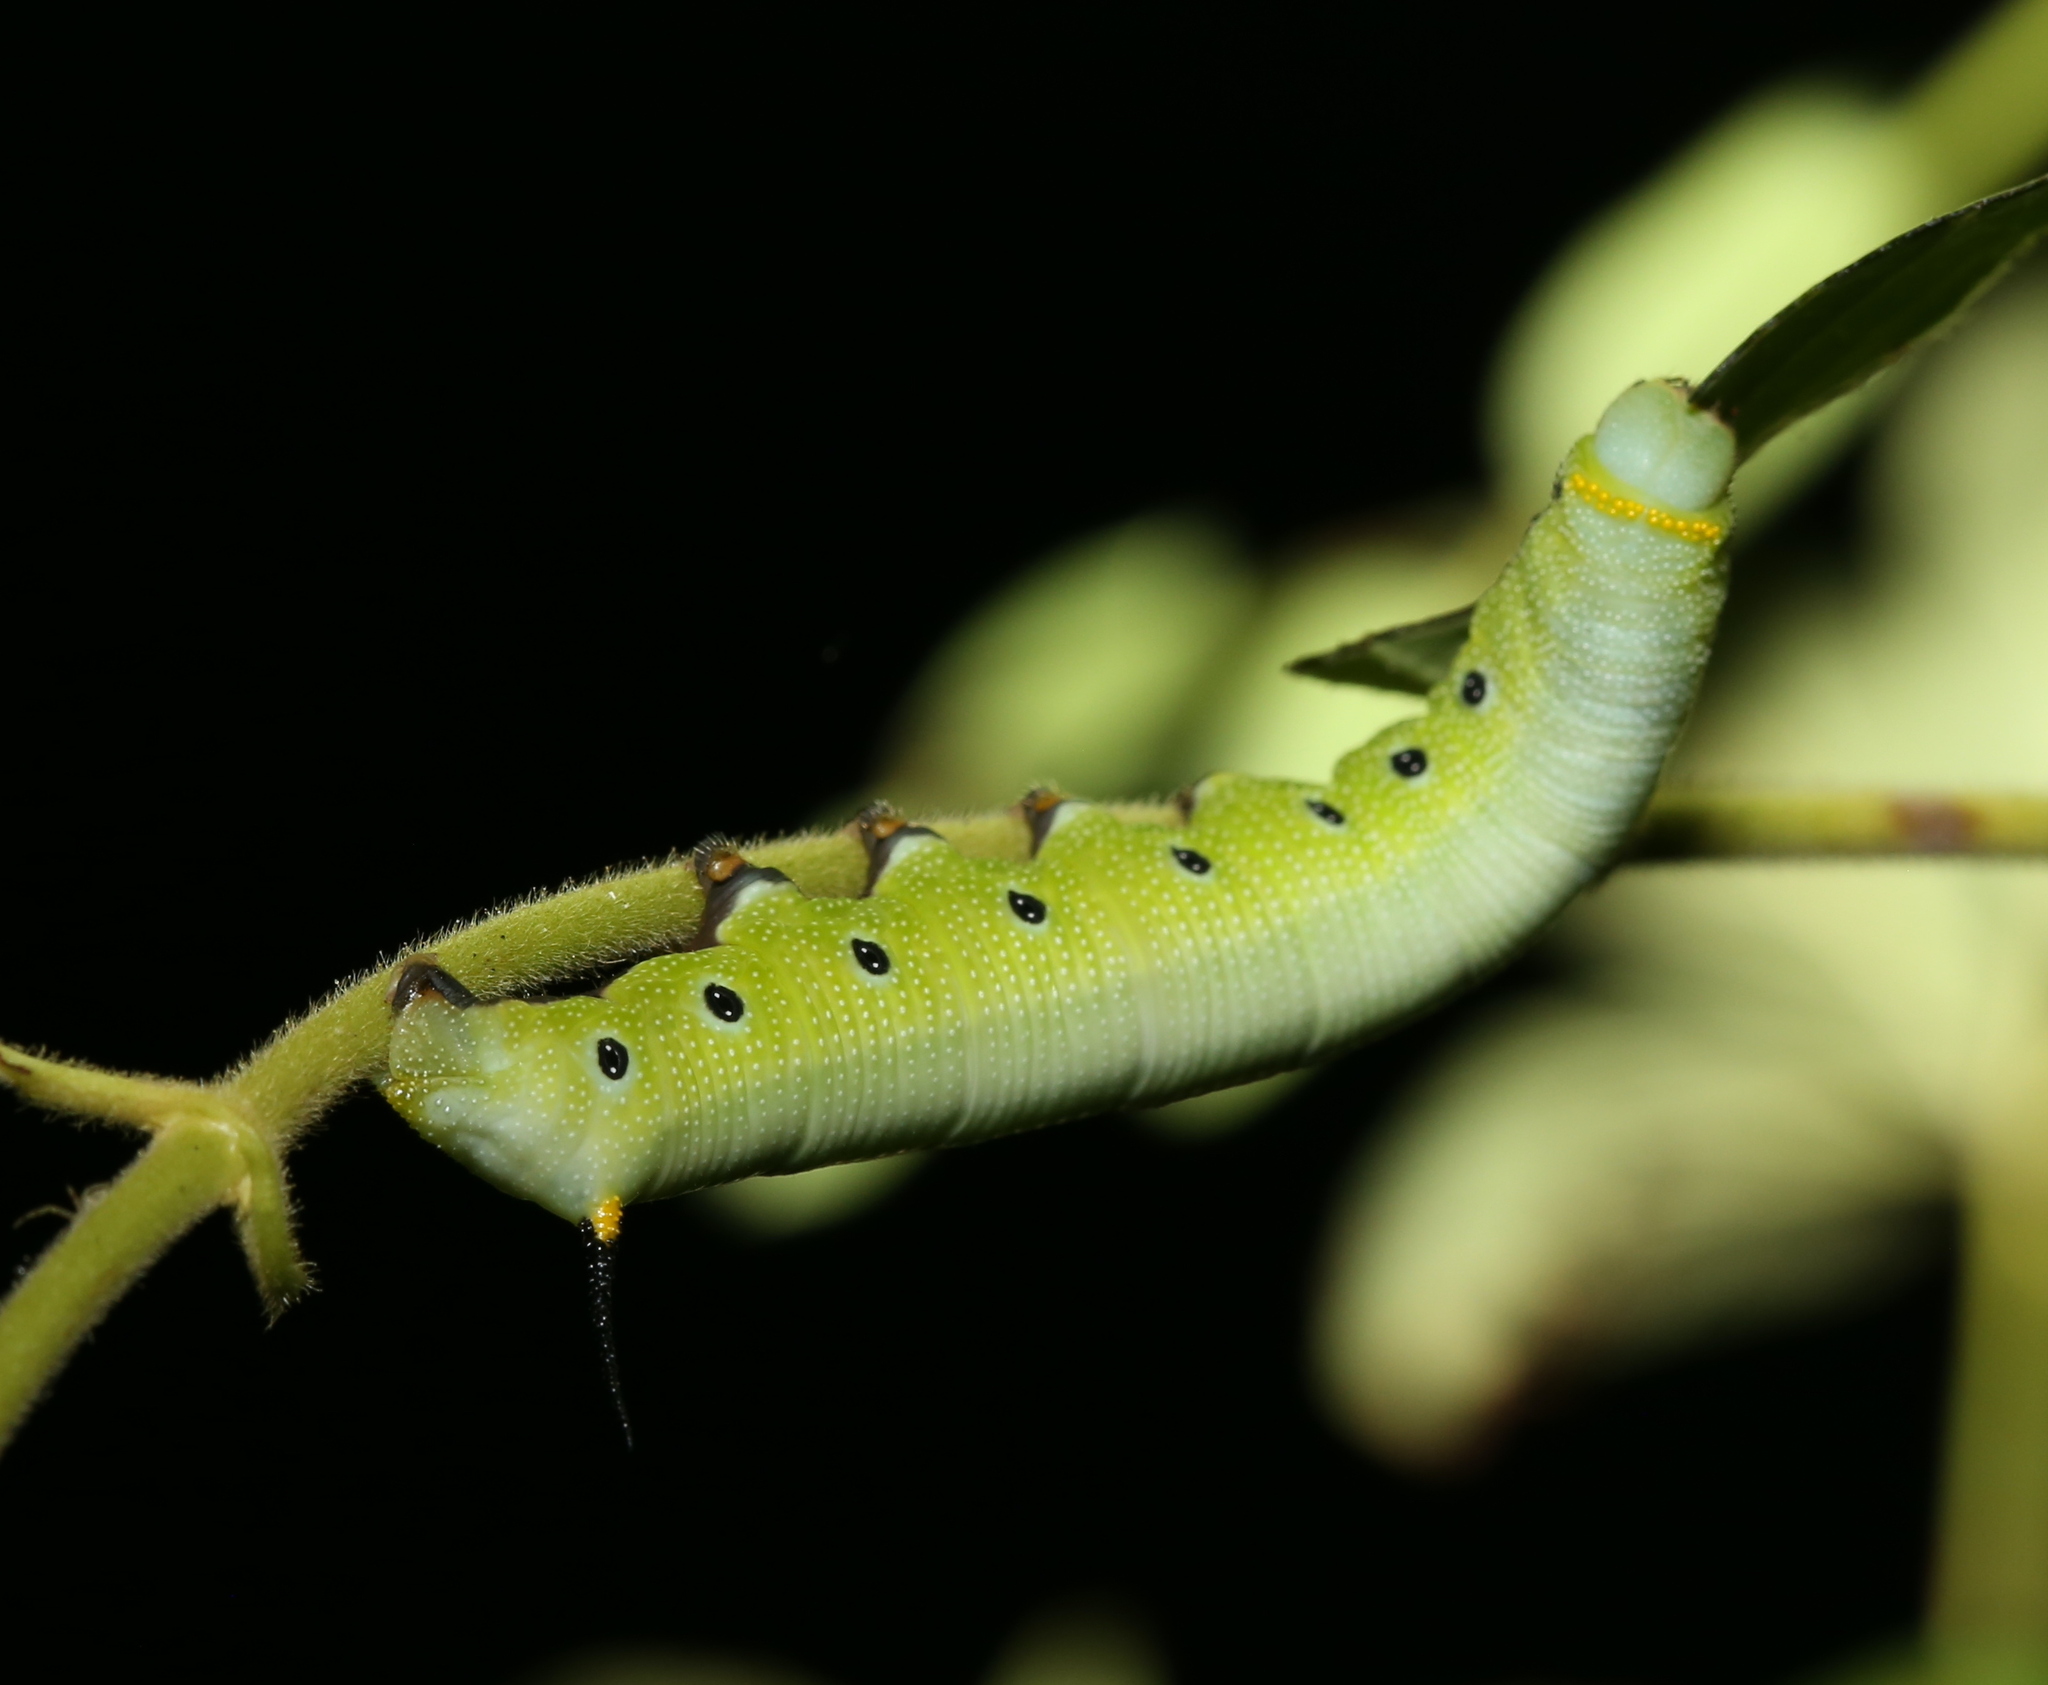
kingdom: Animalia
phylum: Arthropoda
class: Insecta
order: Lepidoptera
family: Sphingidae
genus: Hemaris
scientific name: Hemaris diffinis
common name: Bumblebee moth
